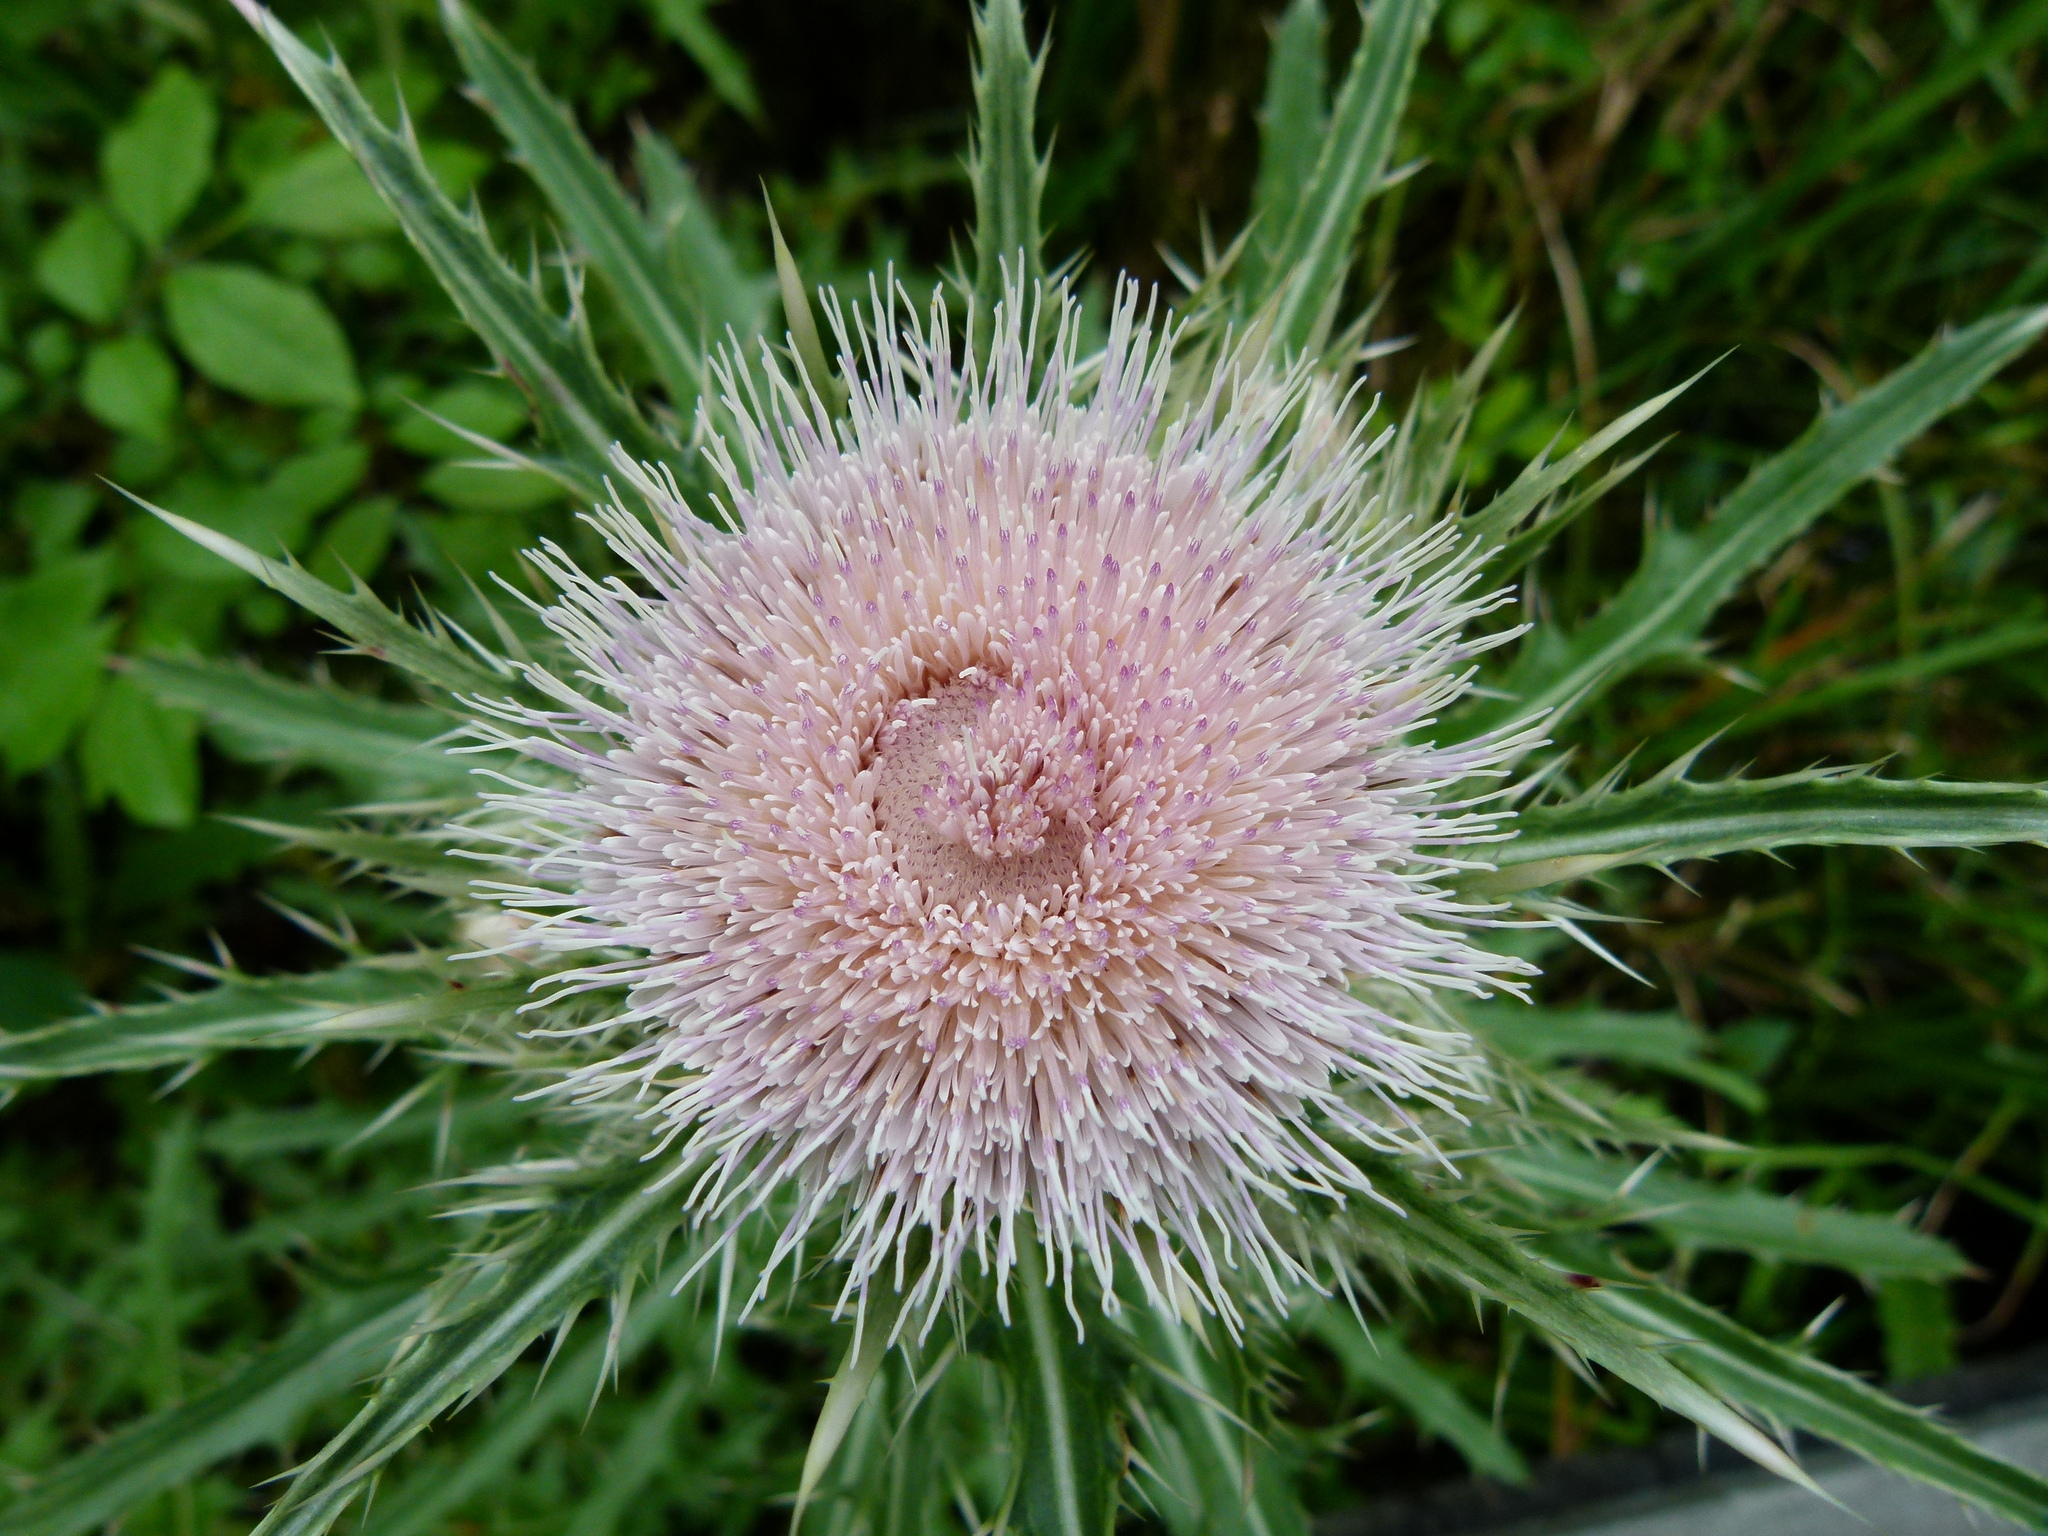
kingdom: Plantae
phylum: Tracheophyta
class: Magnoliopsida
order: Asterales
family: Asteraceae
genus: Cirsium
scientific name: Cirsium horridulum
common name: Bristly thistle
